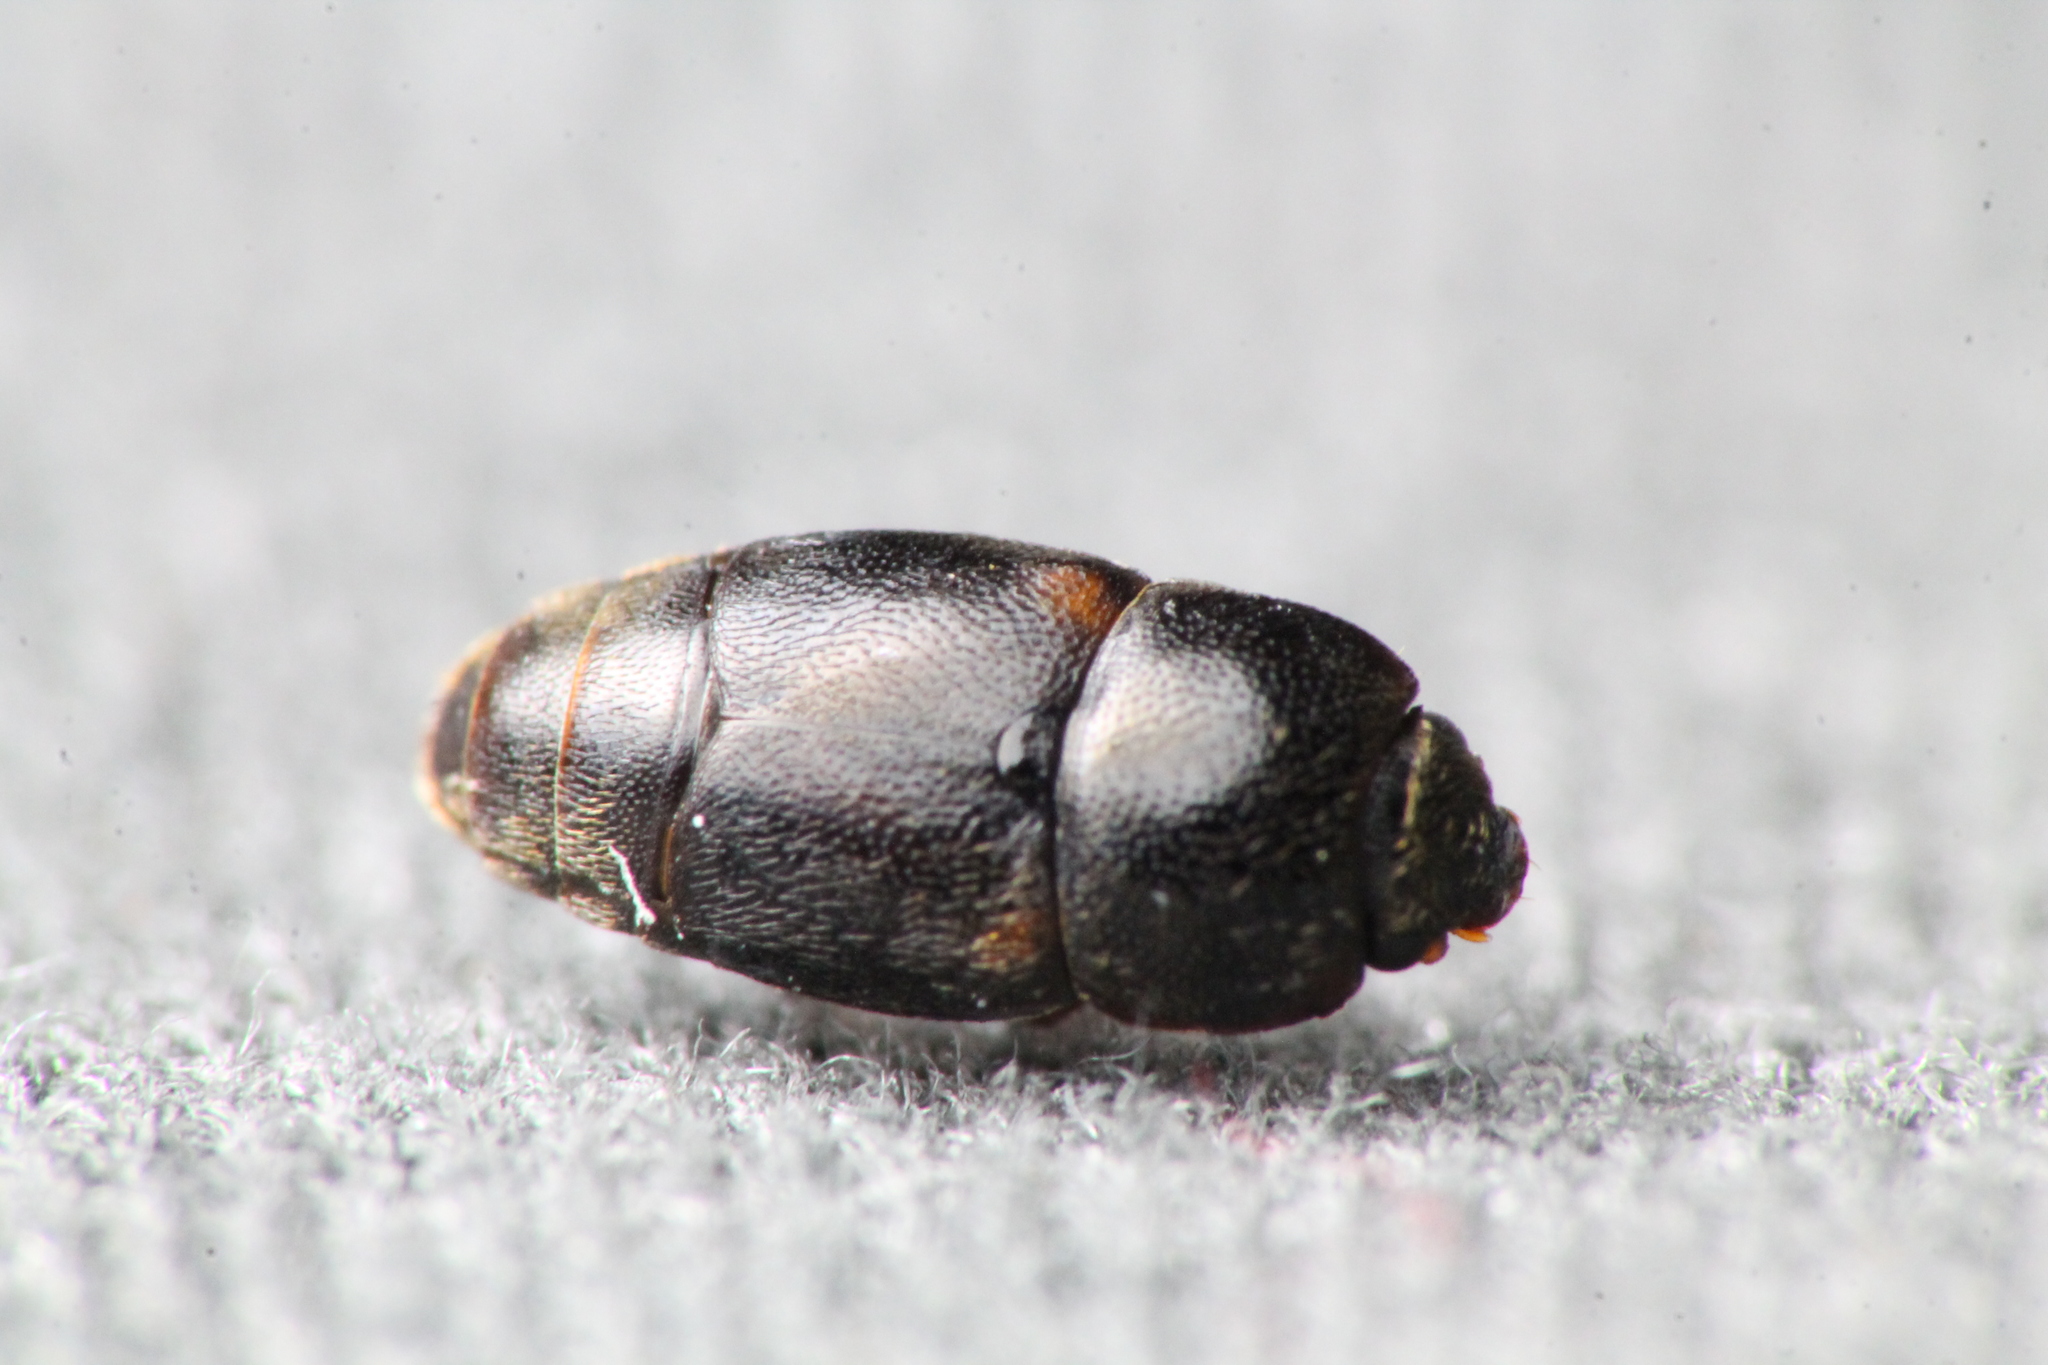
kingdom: Animalia
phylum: Arthropoda
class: Insecta
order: Coleoptera
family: Nitidulidae
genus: Urophorus
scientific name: Urophorus humeralis
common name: Sap beetle
